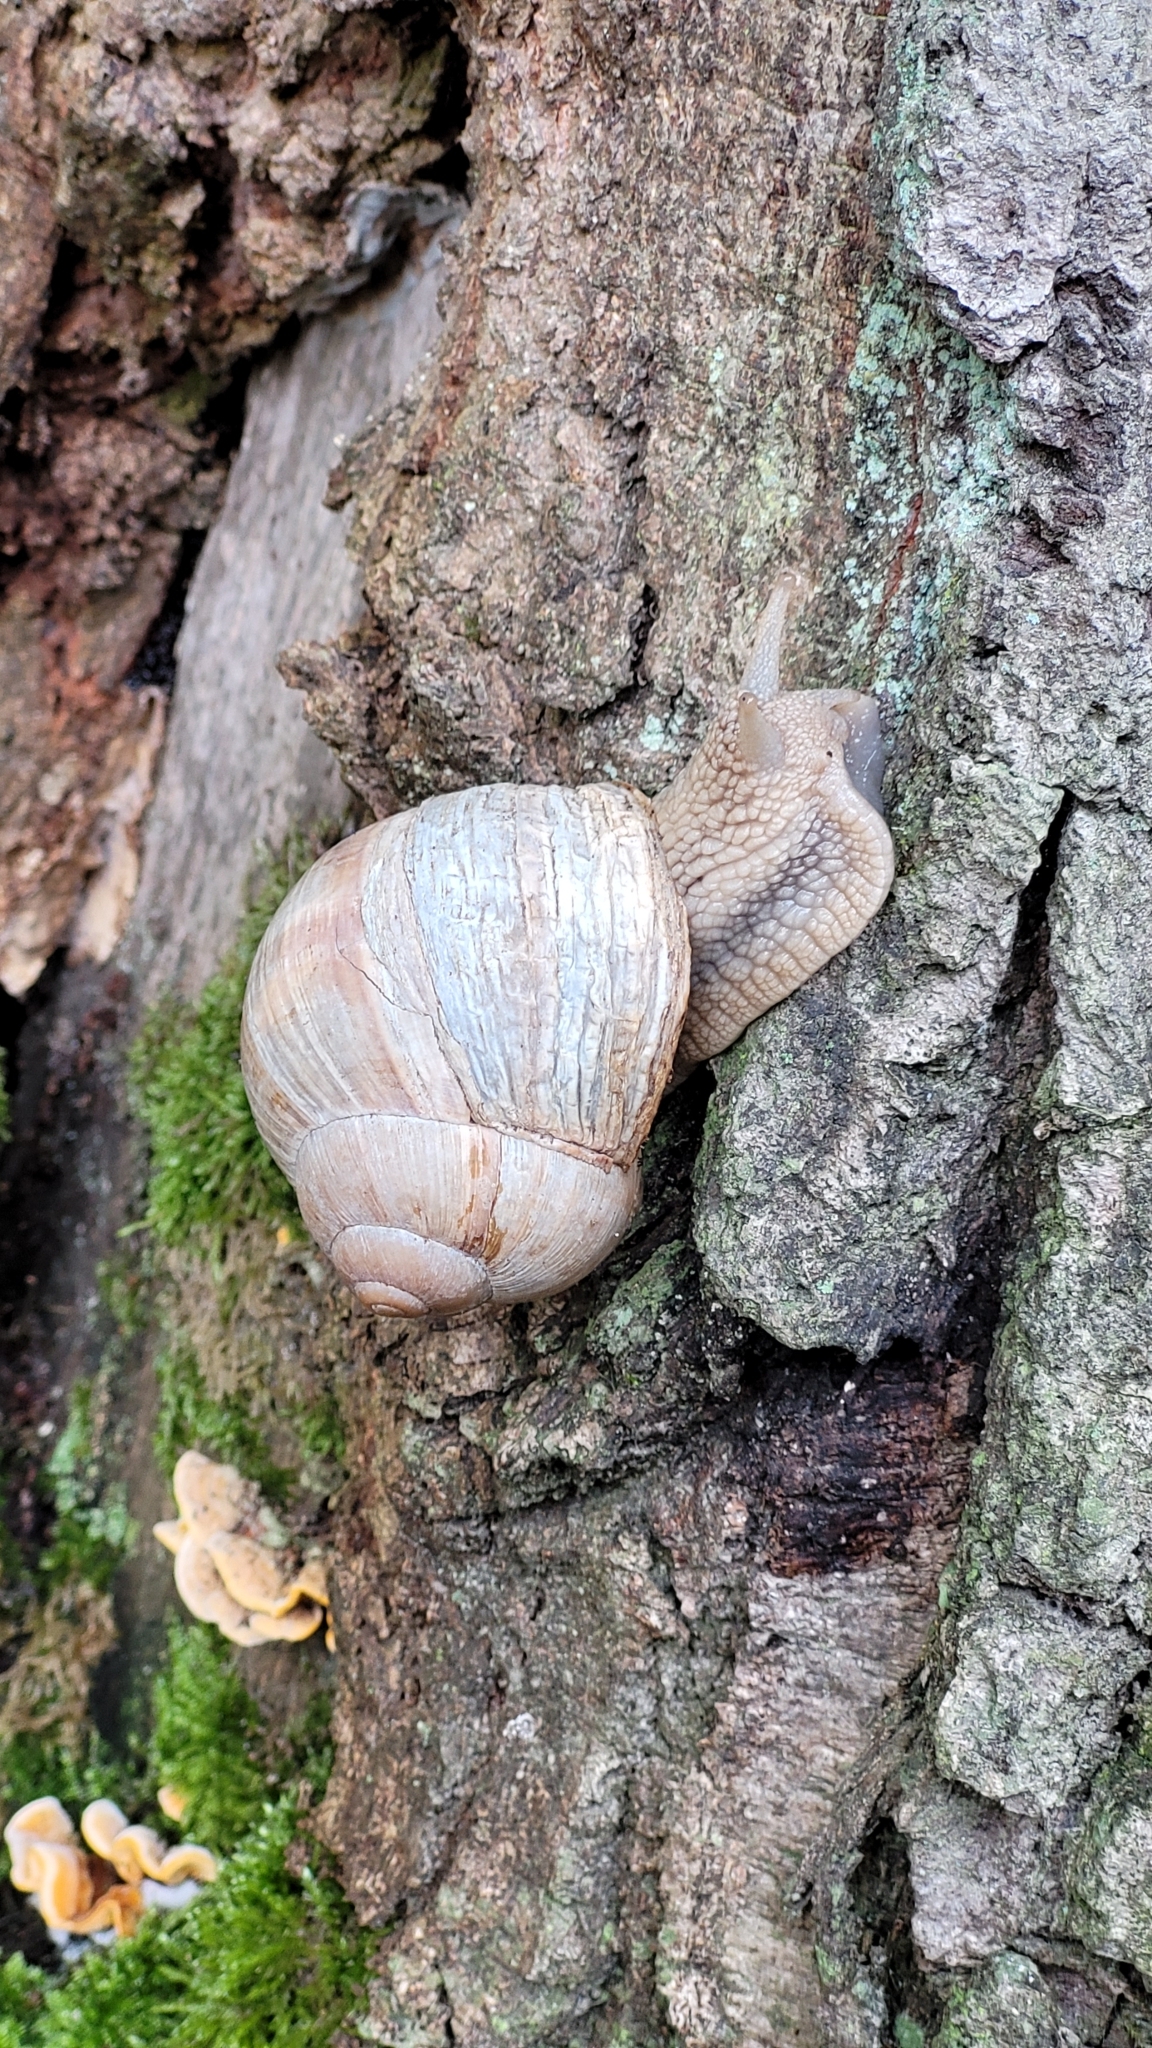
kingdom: Animalia
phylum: Mollusca
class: Gastropoda
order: Stylommatophora
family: Helicidae
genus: Helix
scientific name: Helix pomatia
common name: Roman snail
